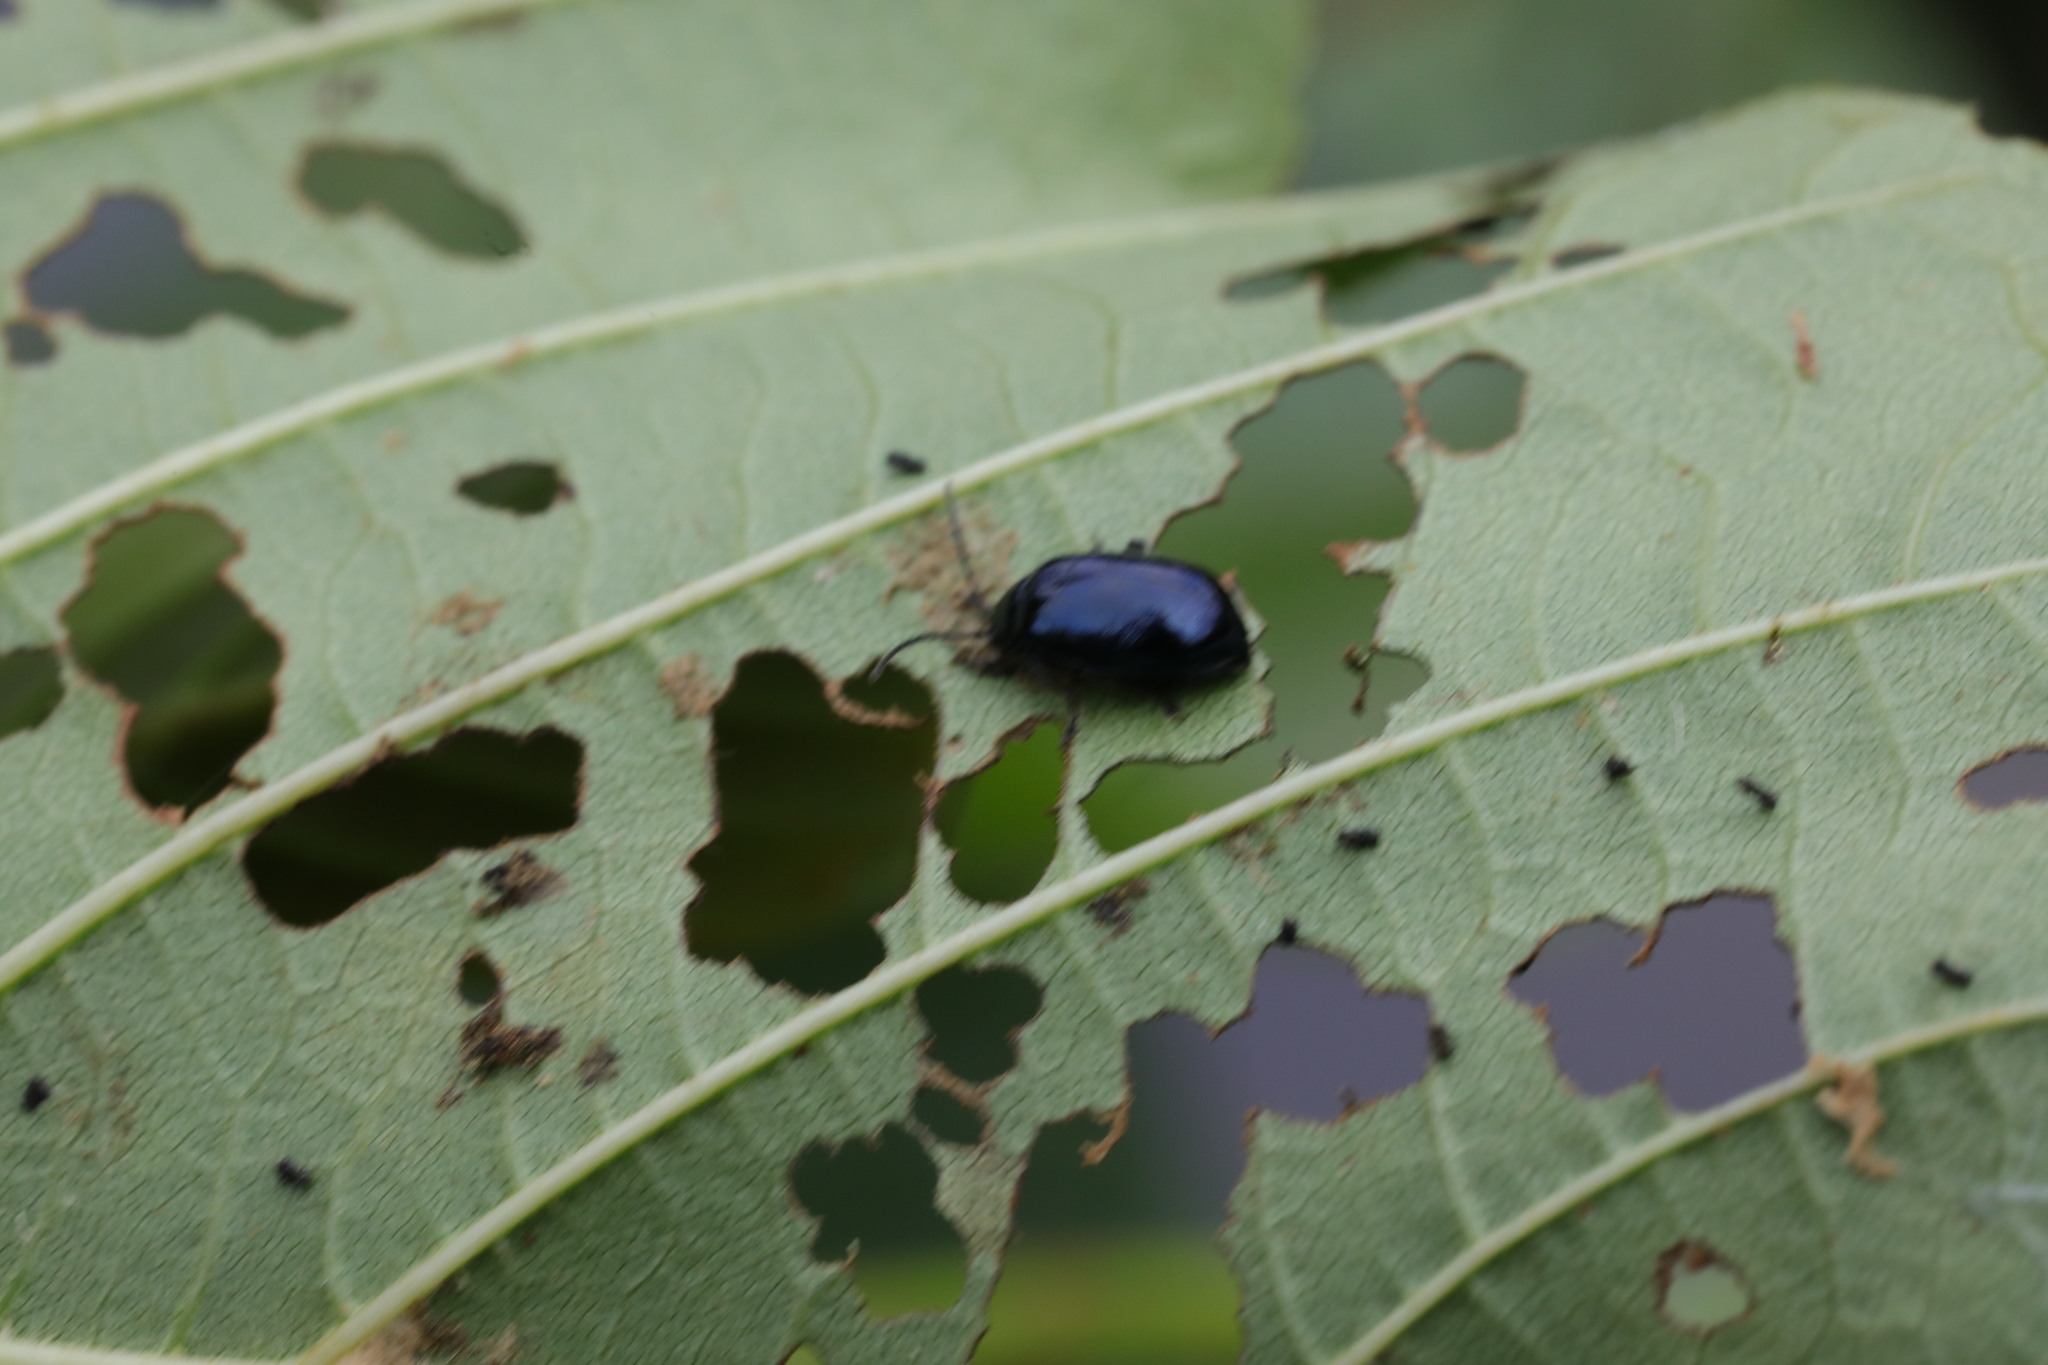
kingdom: Animalia
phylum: Arthropoda
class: Insecta
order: Coleoptera
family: Chrysomelidae
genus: Agelastica
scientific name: Agelastica alni
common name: Alder leaf beetle
